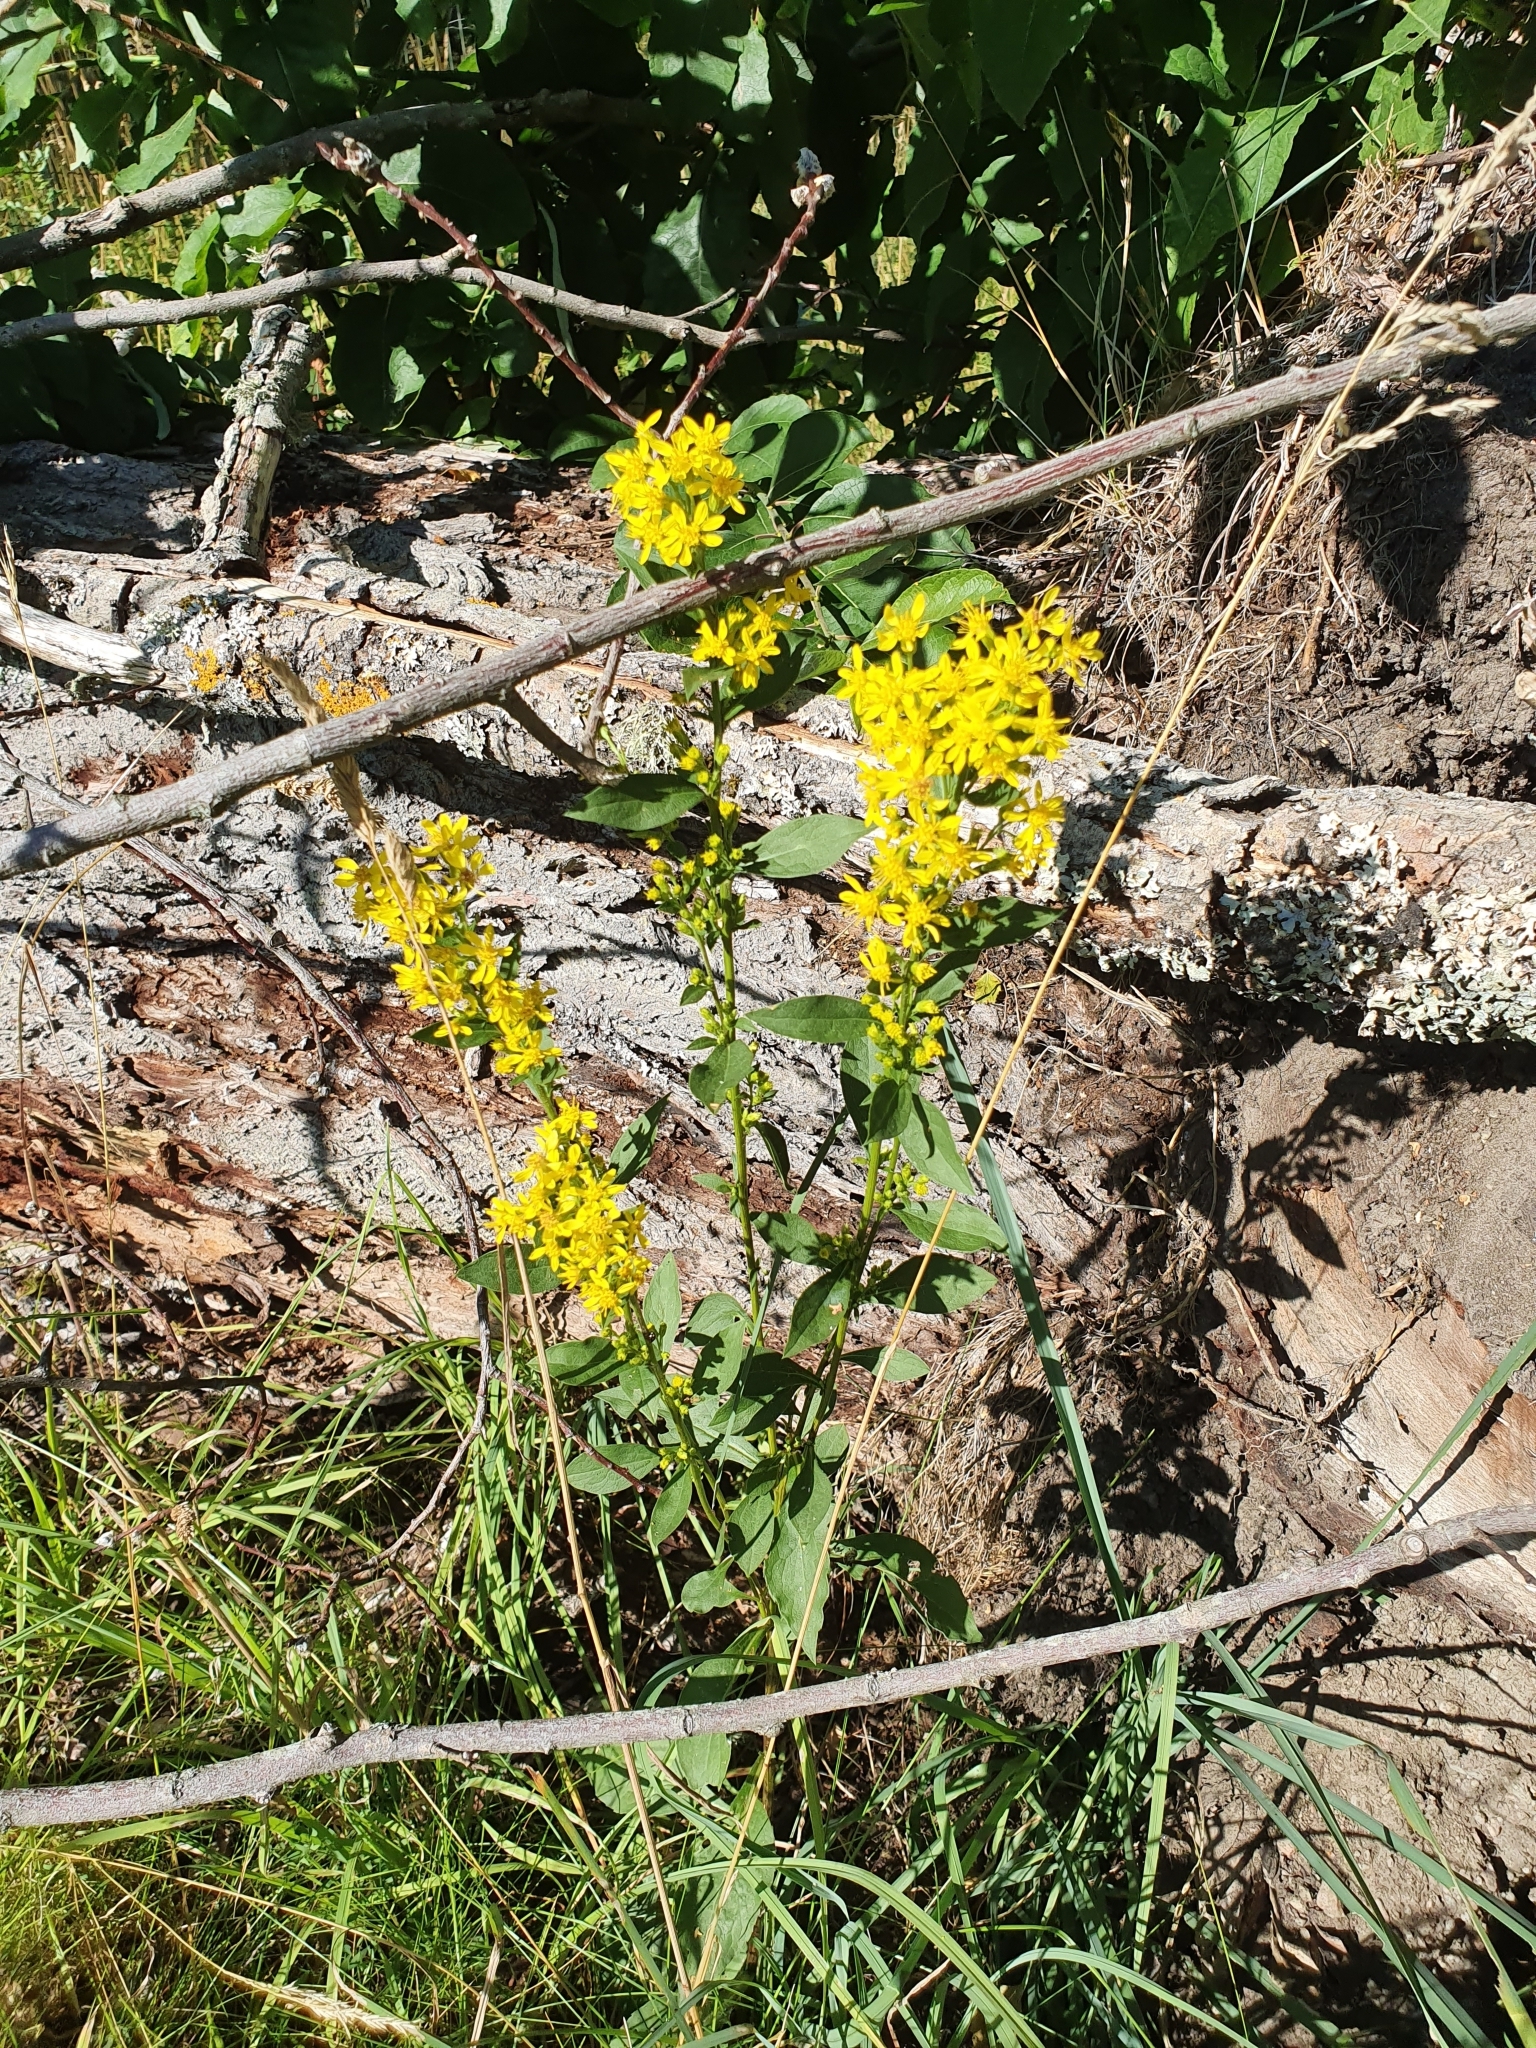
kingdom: Plantae
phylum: Tracheophyta
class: Magnoliopsida
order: Asterales
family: Asteraceae
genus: Solidago
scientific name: Solidago virgaurea
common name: Goldenrod
